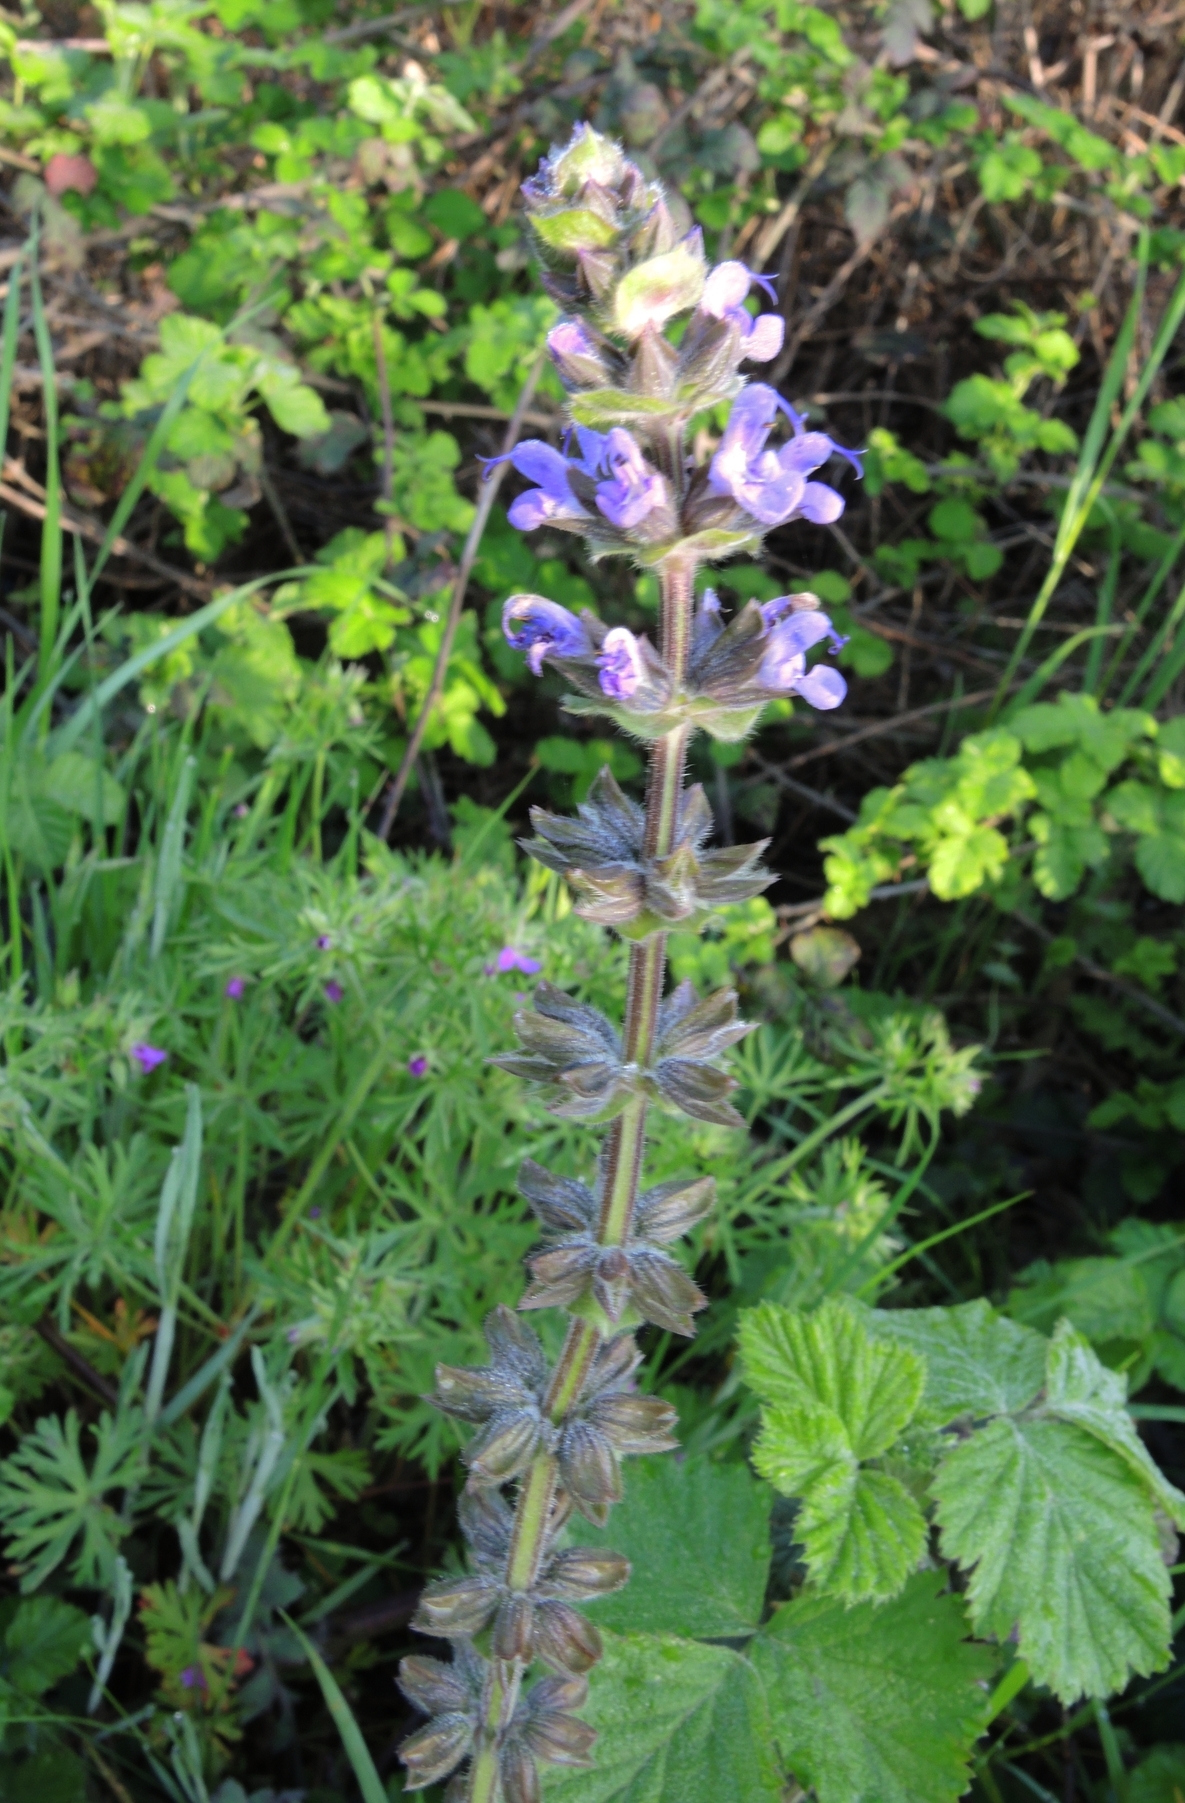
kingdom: Plantae
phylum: Tracheophyta
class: Magnoliopsida
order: Lamiales
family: Lamiaceae
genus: Salvia
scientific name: Salvia verbenaca
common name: Wild clary
